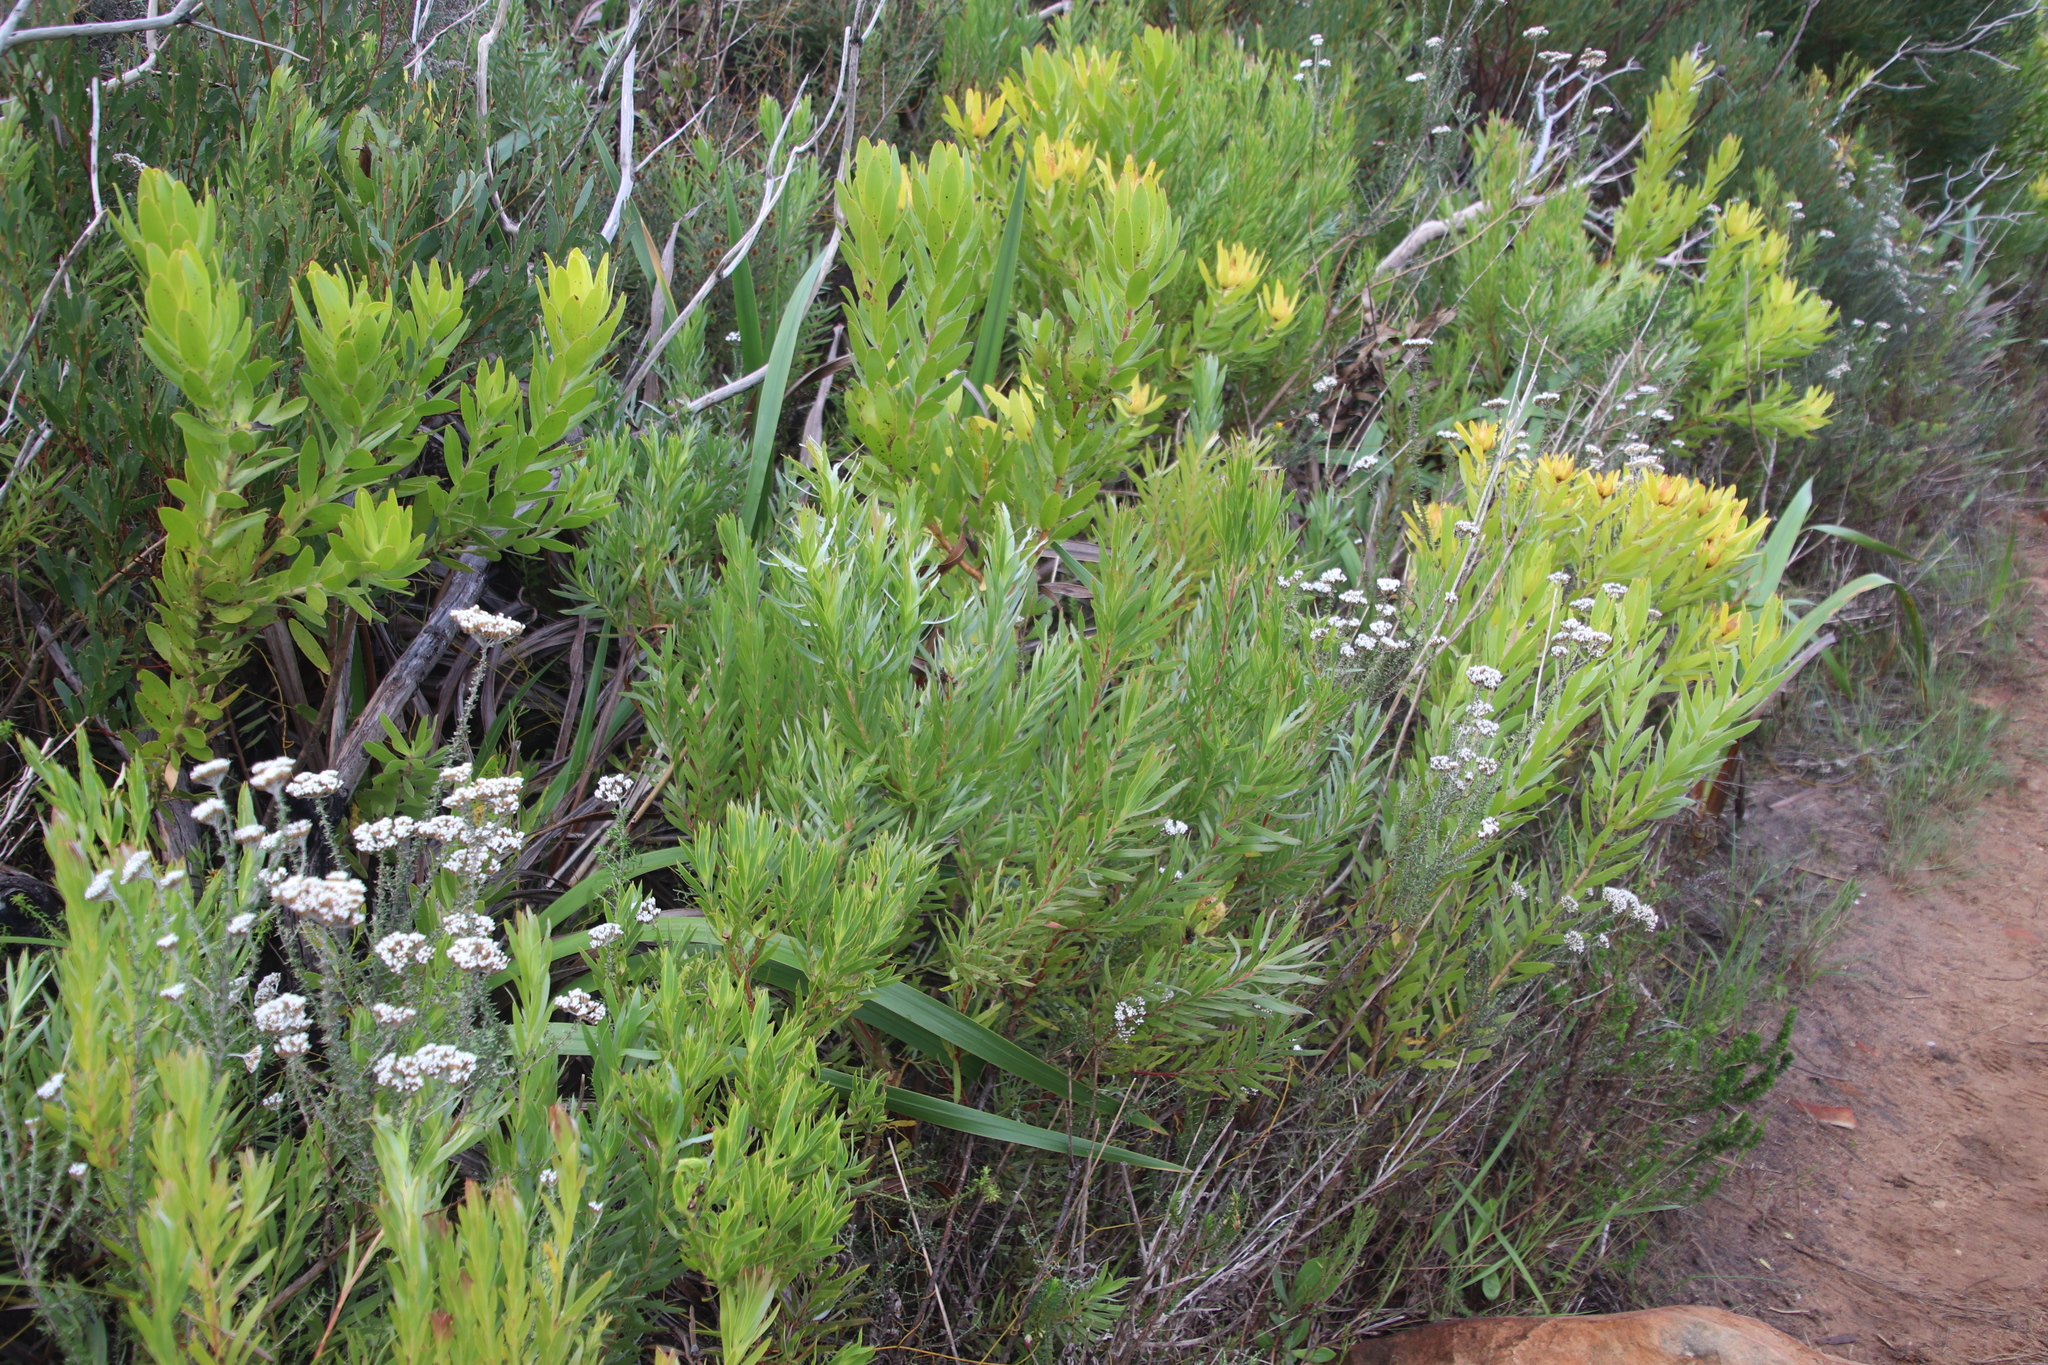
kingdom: Plantae
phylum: Tracheophyta
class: Magnoliopsida
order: Proteales
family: Proteaceae
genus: Leucadendron
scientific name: Leucadendron xanthoconus
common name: Sickle-leaf conebush
